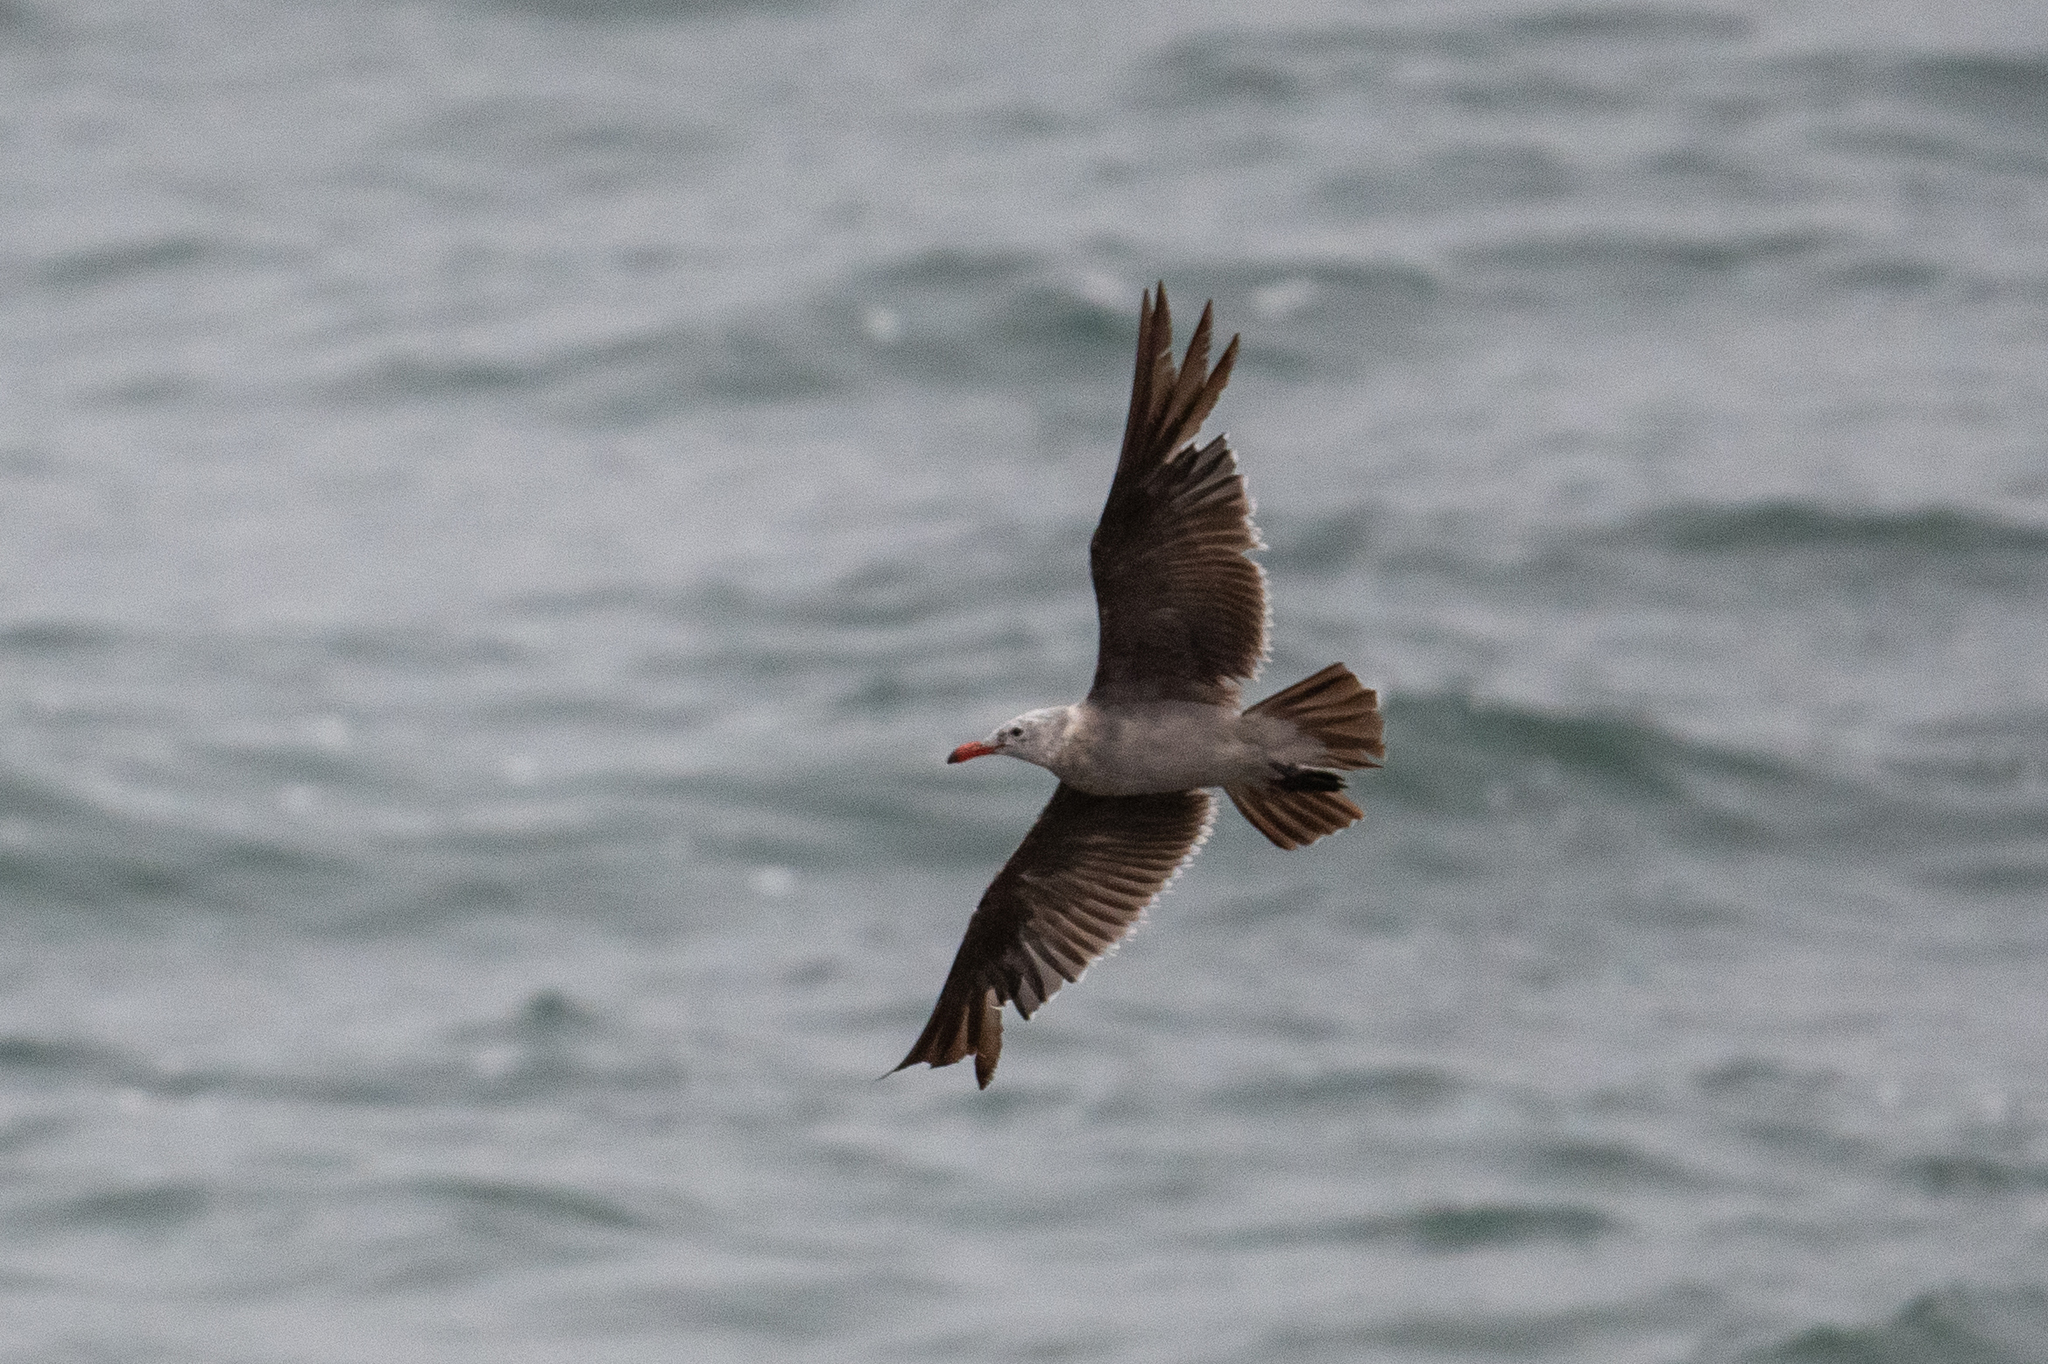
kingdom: Animalia
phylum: Chordata
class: Aves
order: Charadriiformes
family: Laridae
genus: Larus
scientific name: Larus heermanni
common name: Heermann's gull
